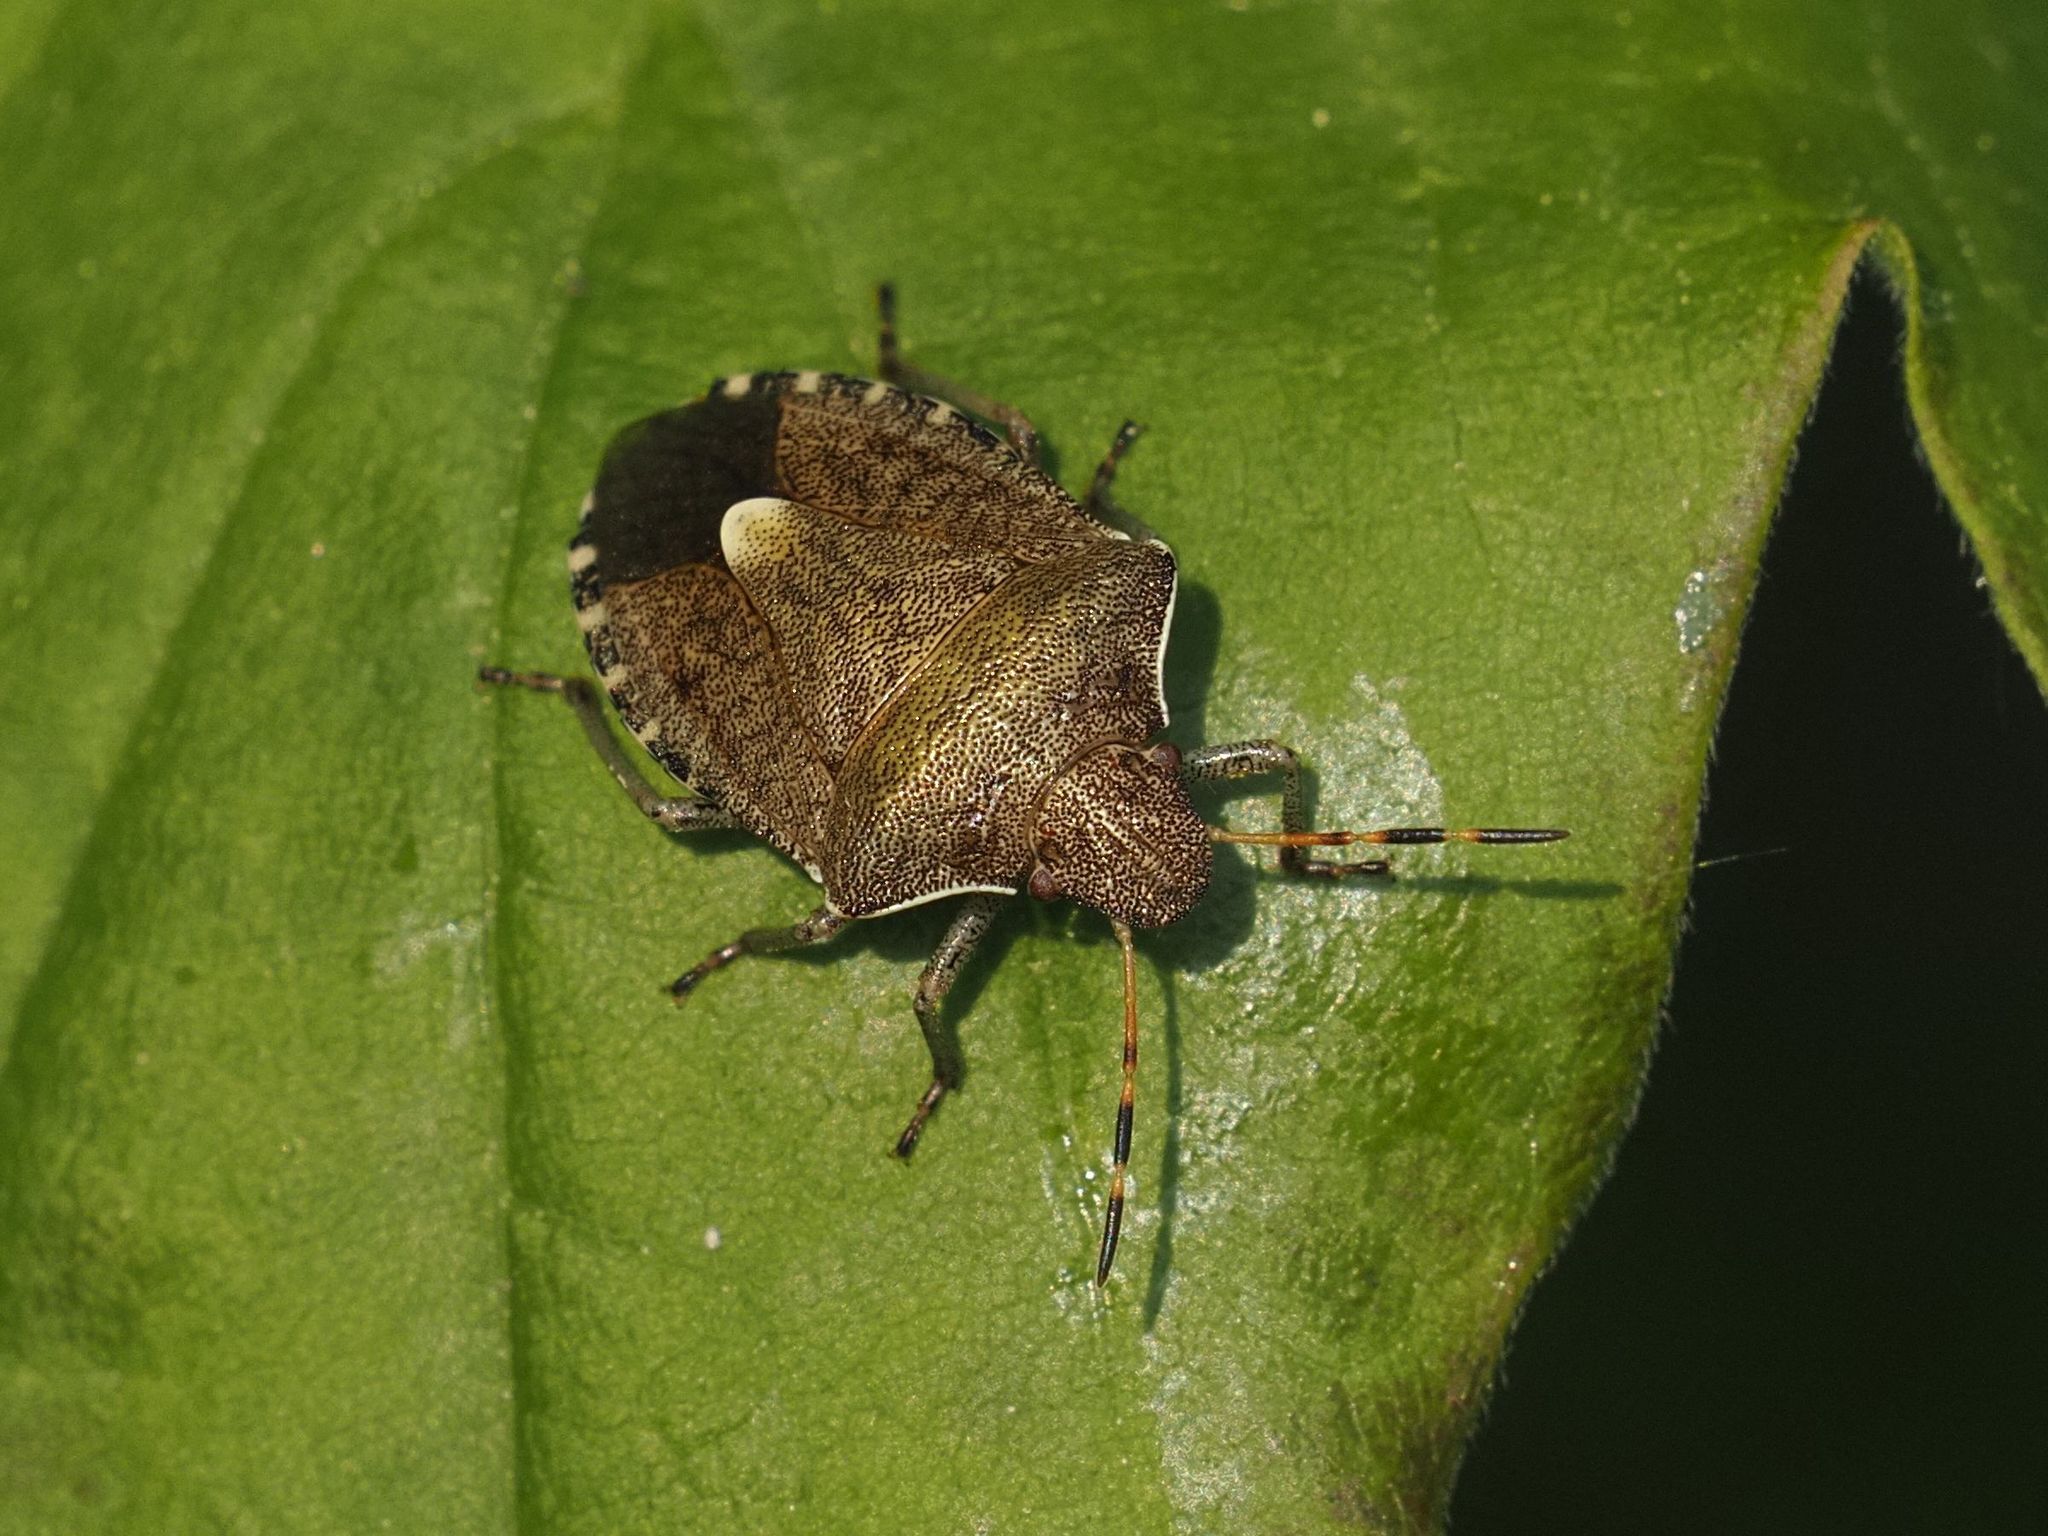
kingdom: Animalia
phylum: Arthropoda
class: Insecta
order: Hemiptera
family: Pentatomidae
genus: Holcostethus
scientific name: Holcostethus strictus
